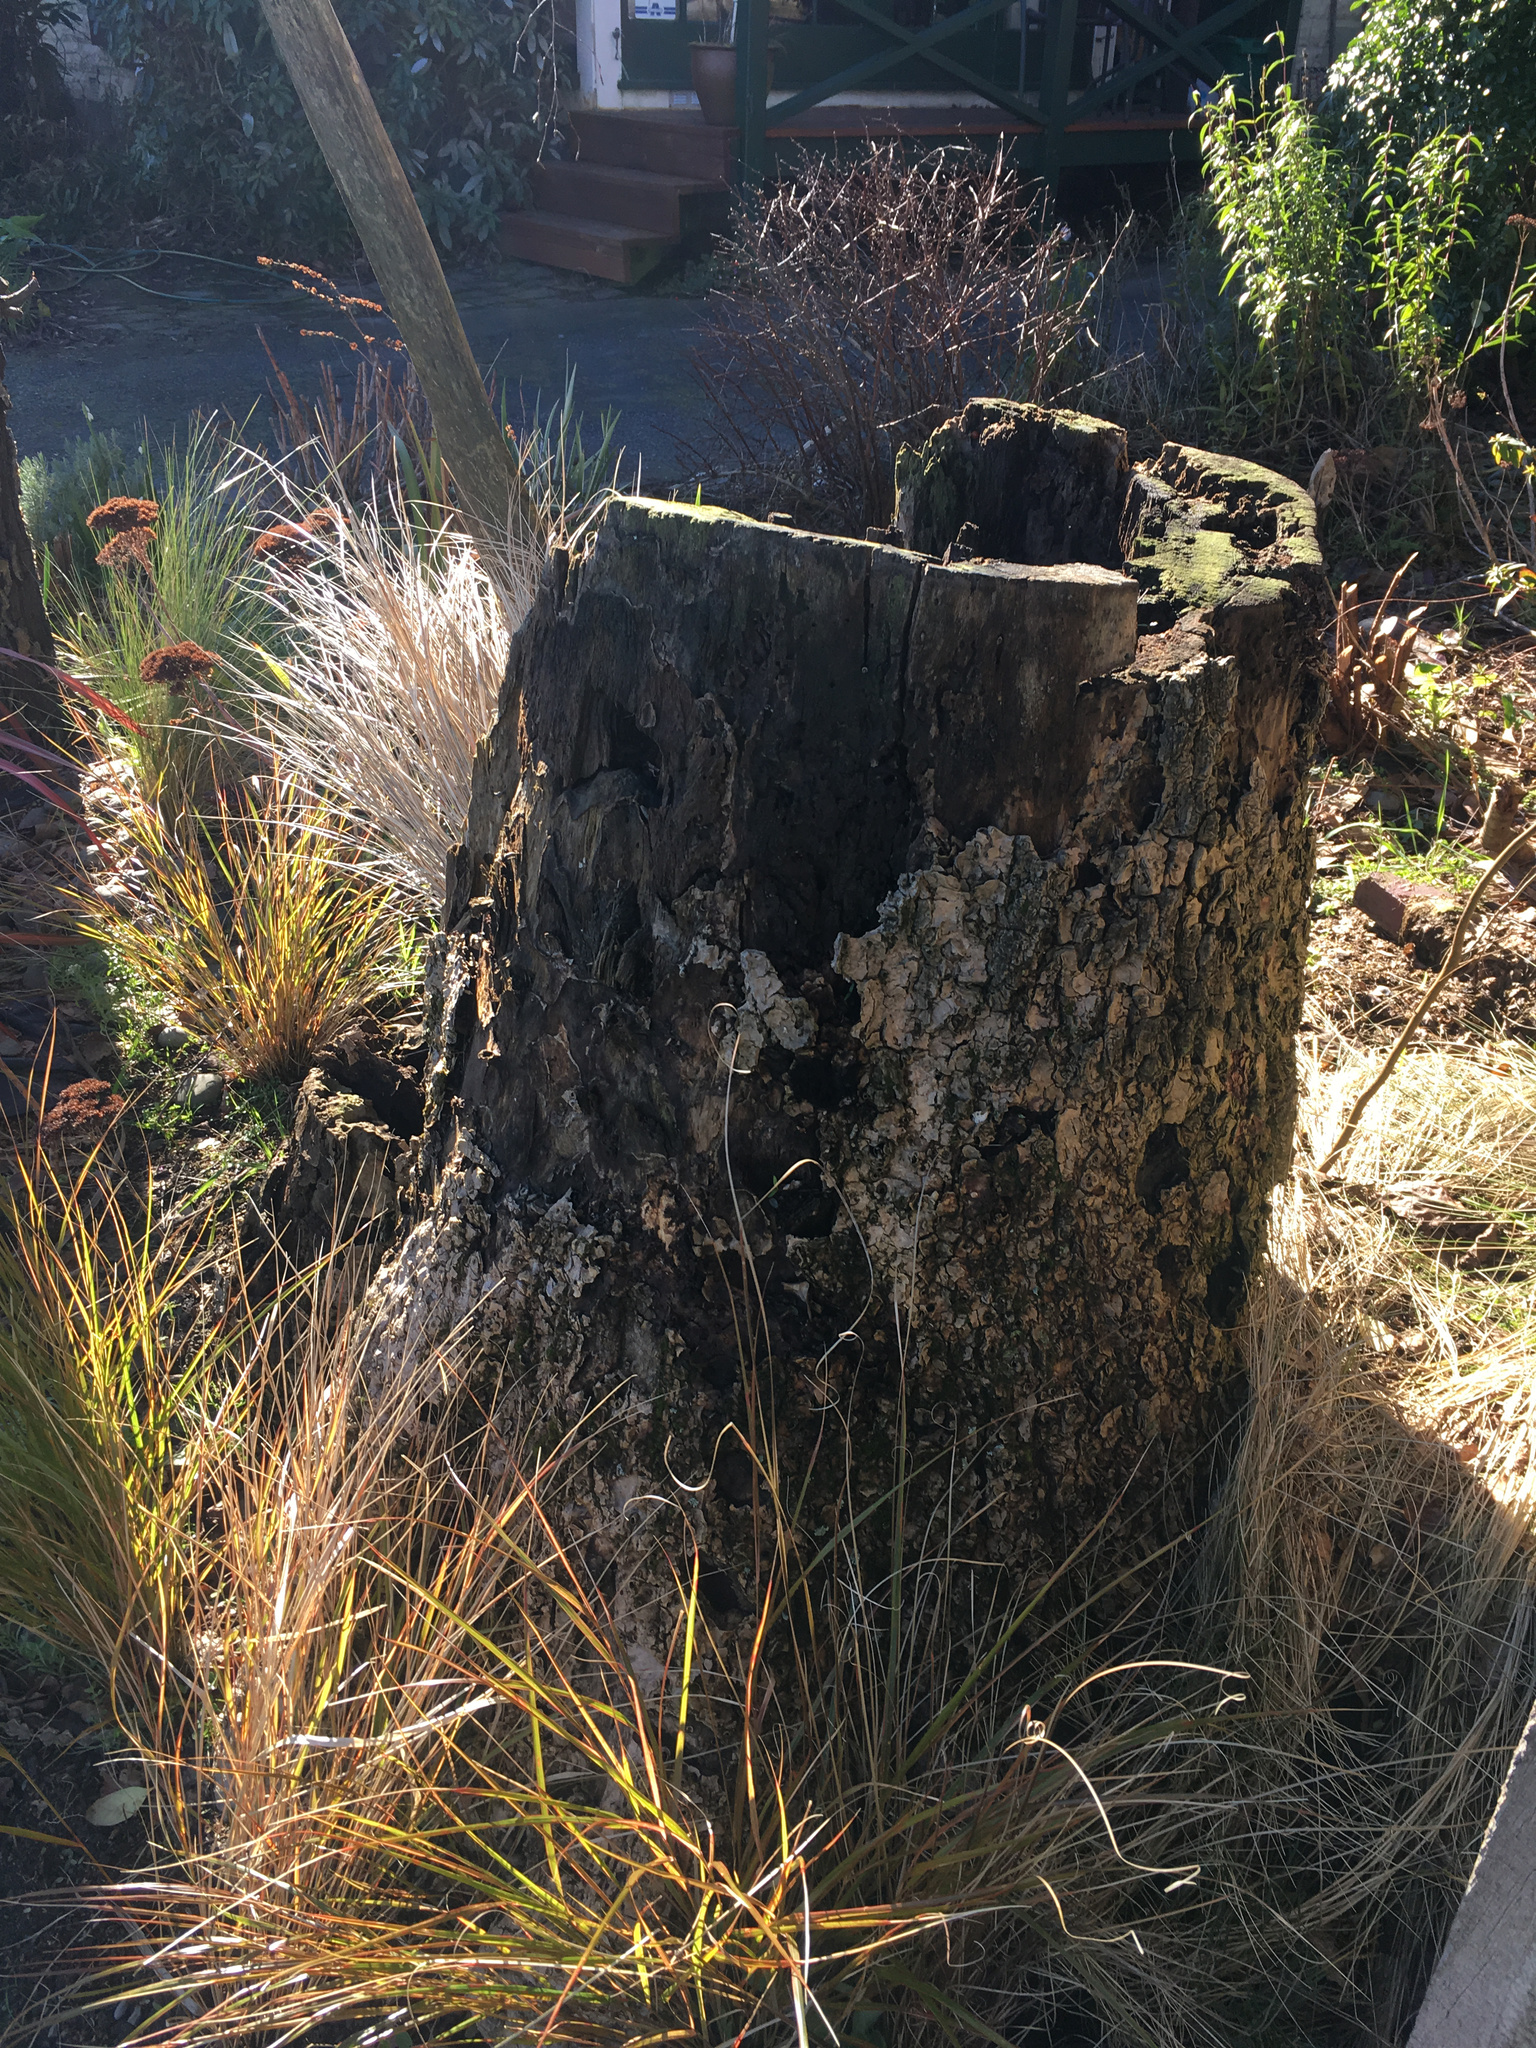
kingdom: Plantae
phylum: Tracheophyta
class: Liliopsida
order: Asparagales
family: Asparagaceae
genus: Cordyline
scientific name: Cordyline australis
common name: Cabbage-palm
